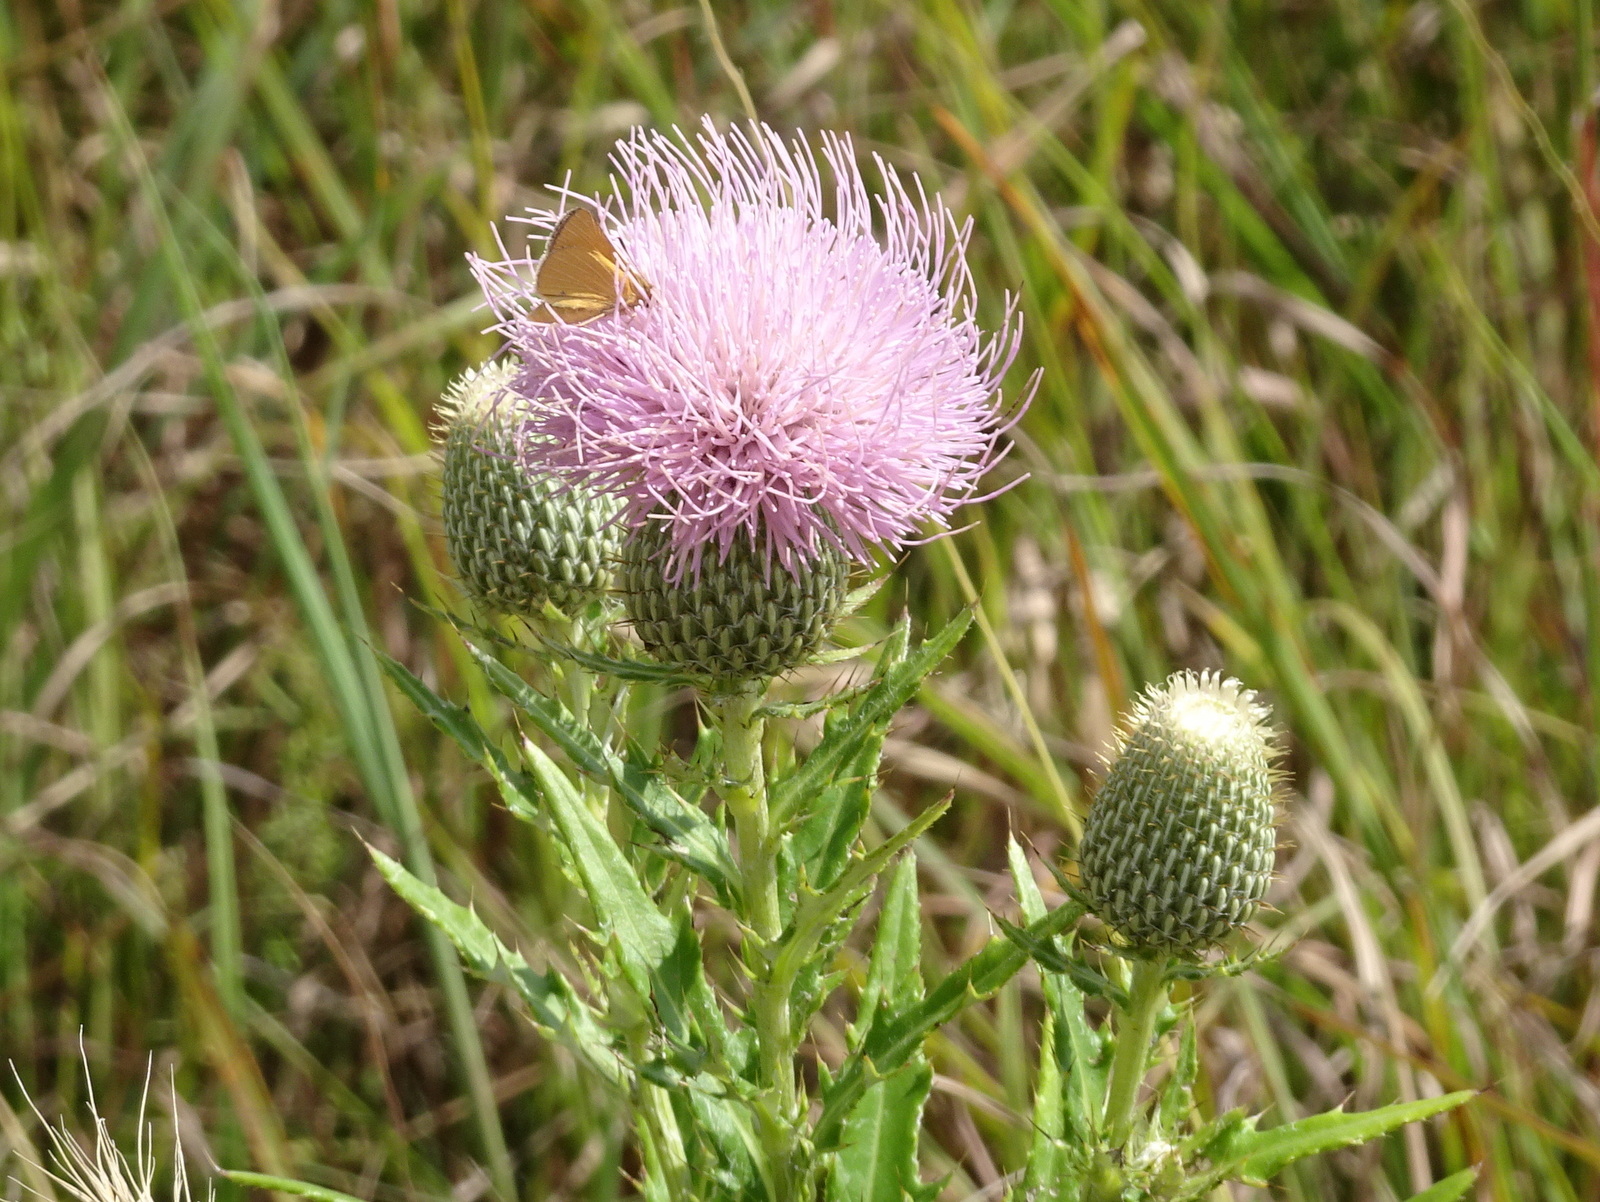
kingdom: Plantae
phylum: Tracheophyta
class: Magnoliopsida
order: Asterales
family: Asteraceae
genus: Cirsium
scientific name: Cirsium altissimum
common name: Roadside thistle
